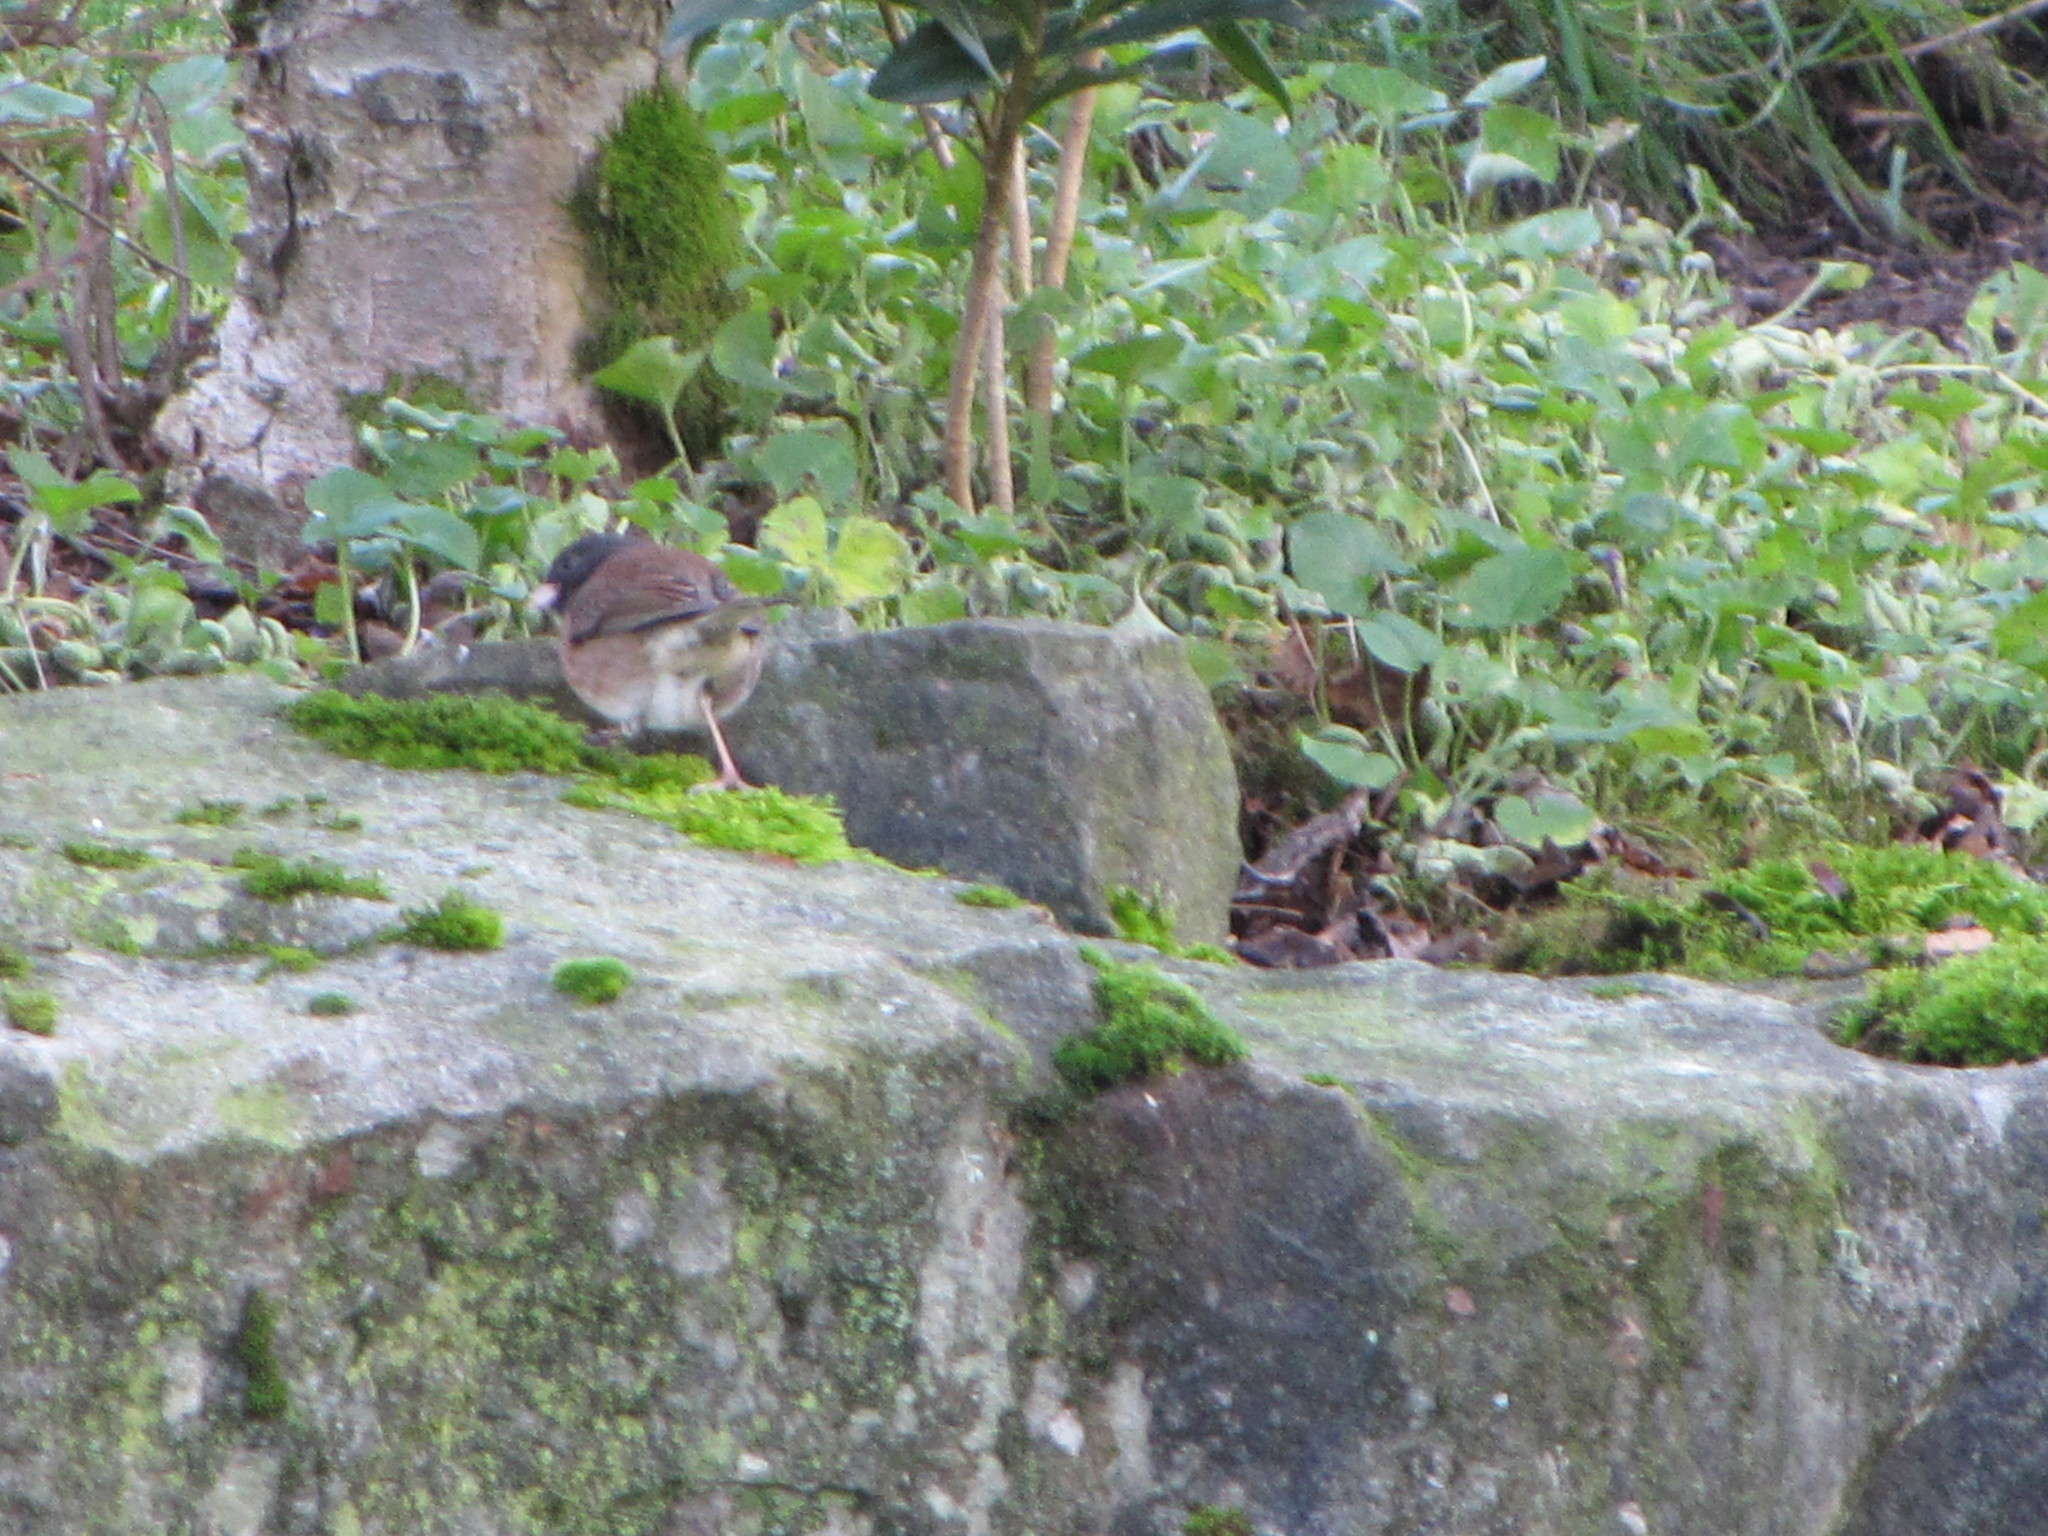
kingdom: Animalia
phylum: Chordata
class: Aves
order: Passeriformes
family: Passerellidae
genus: Junco
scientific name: Junco hyemalis
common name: Dark-eyed junco
